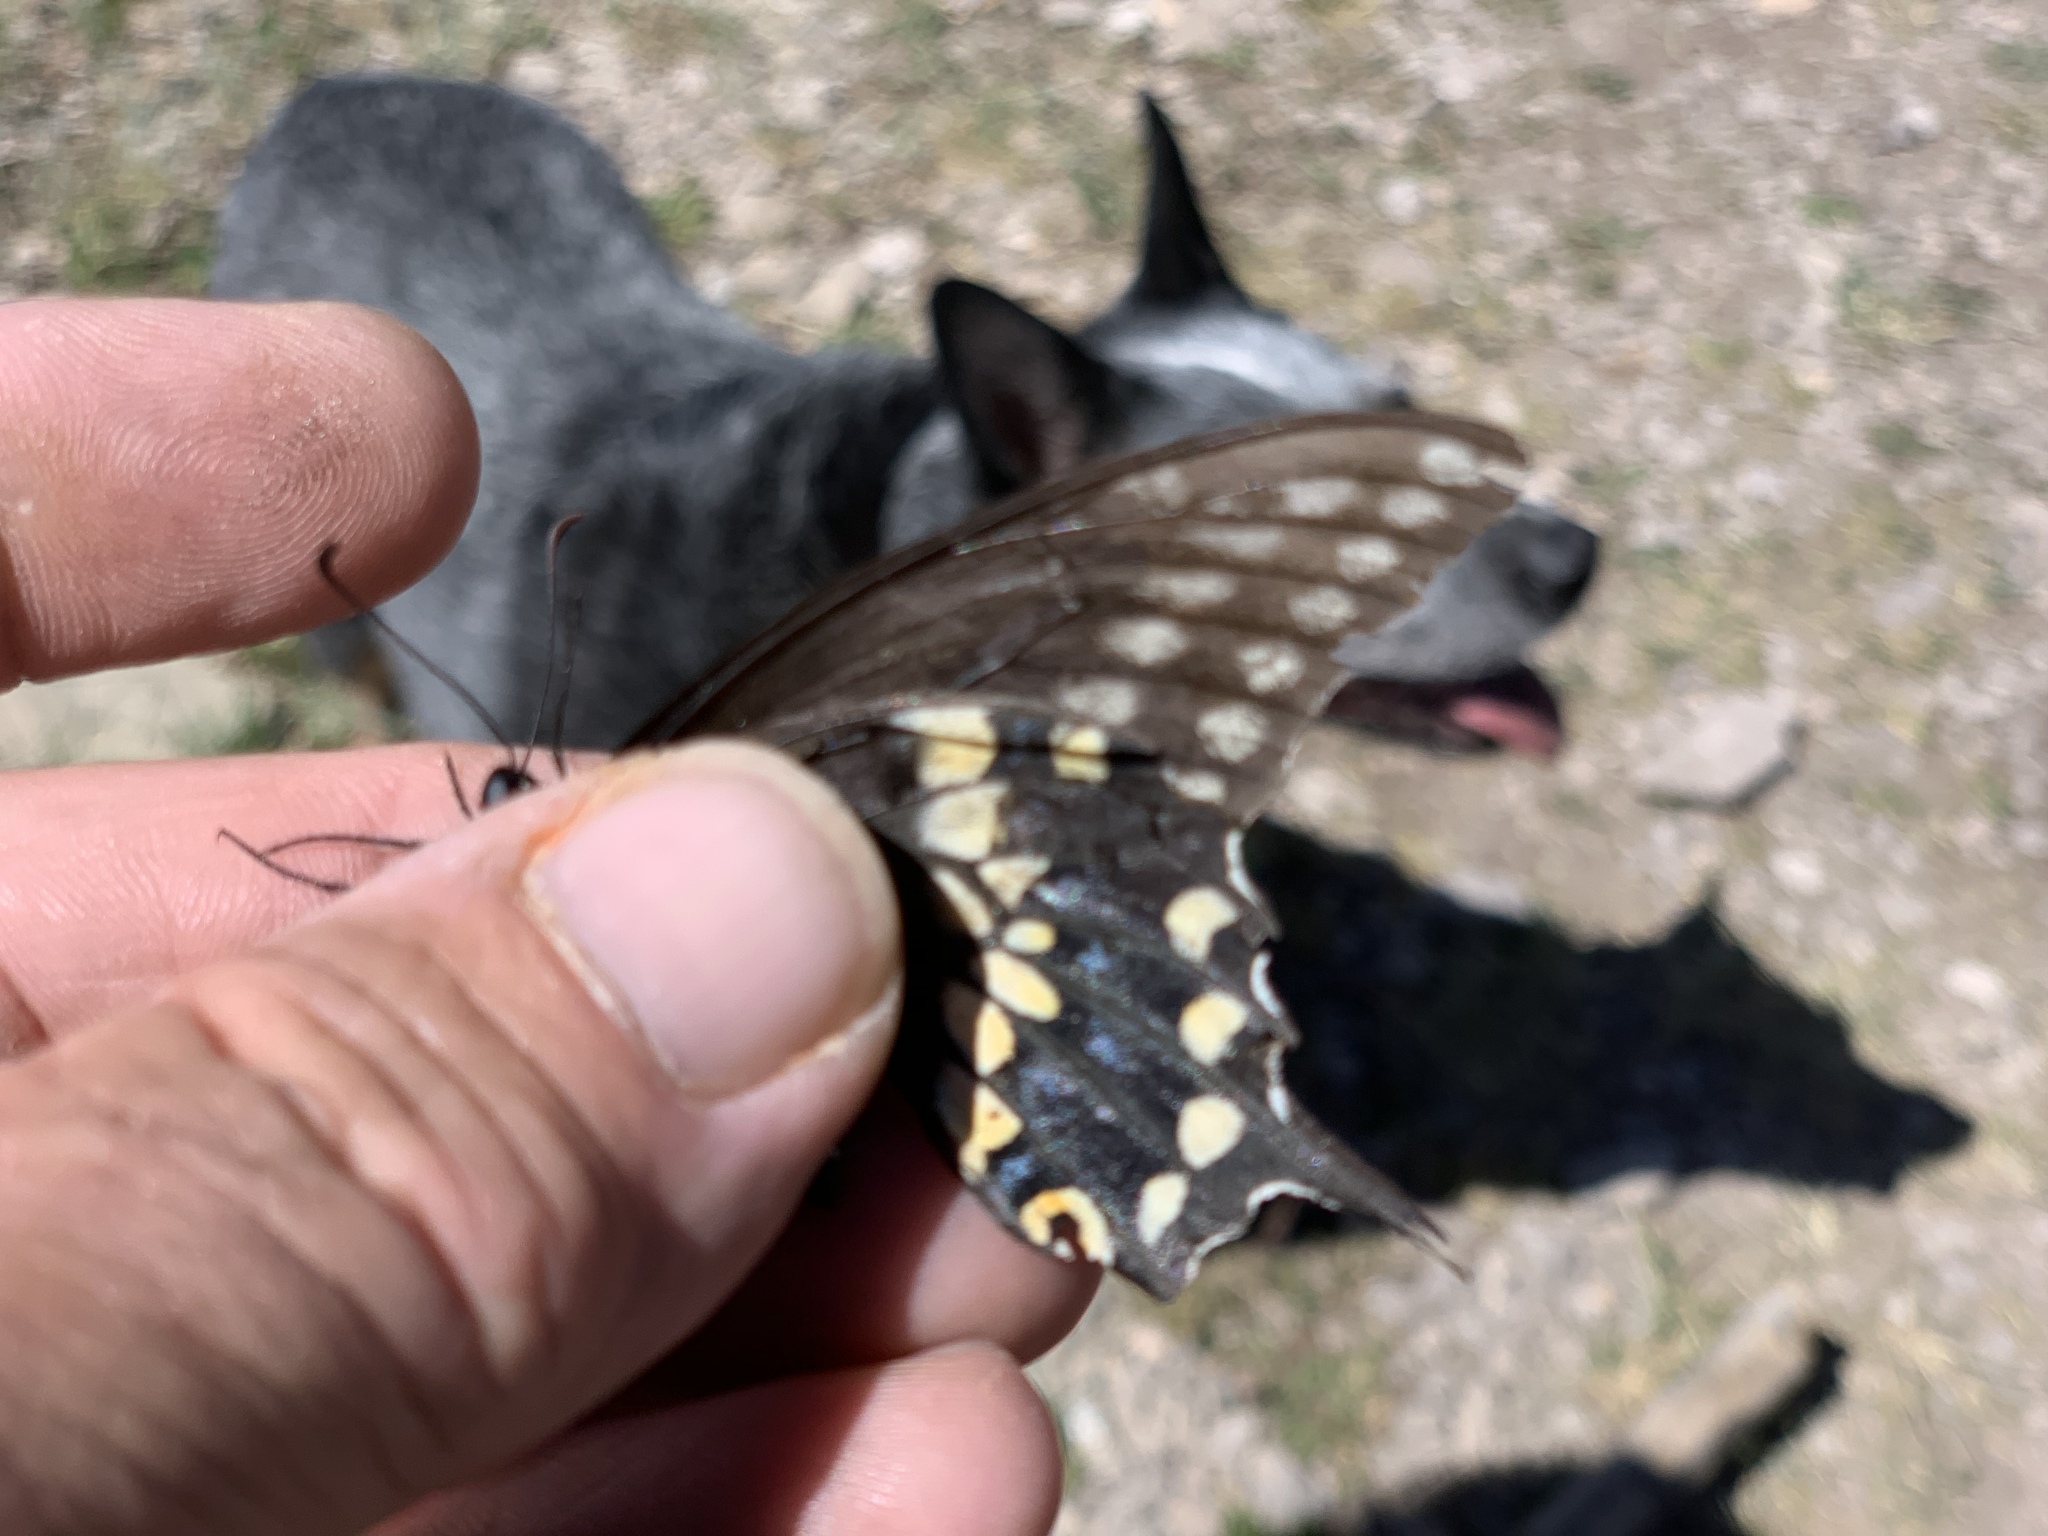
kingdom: Animalia
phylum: Arthropoda
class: Insecta
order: Lepidoptera
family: Papilionidae
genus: Papilio
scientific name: Papilio polyxenes
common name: Black swallowtail
